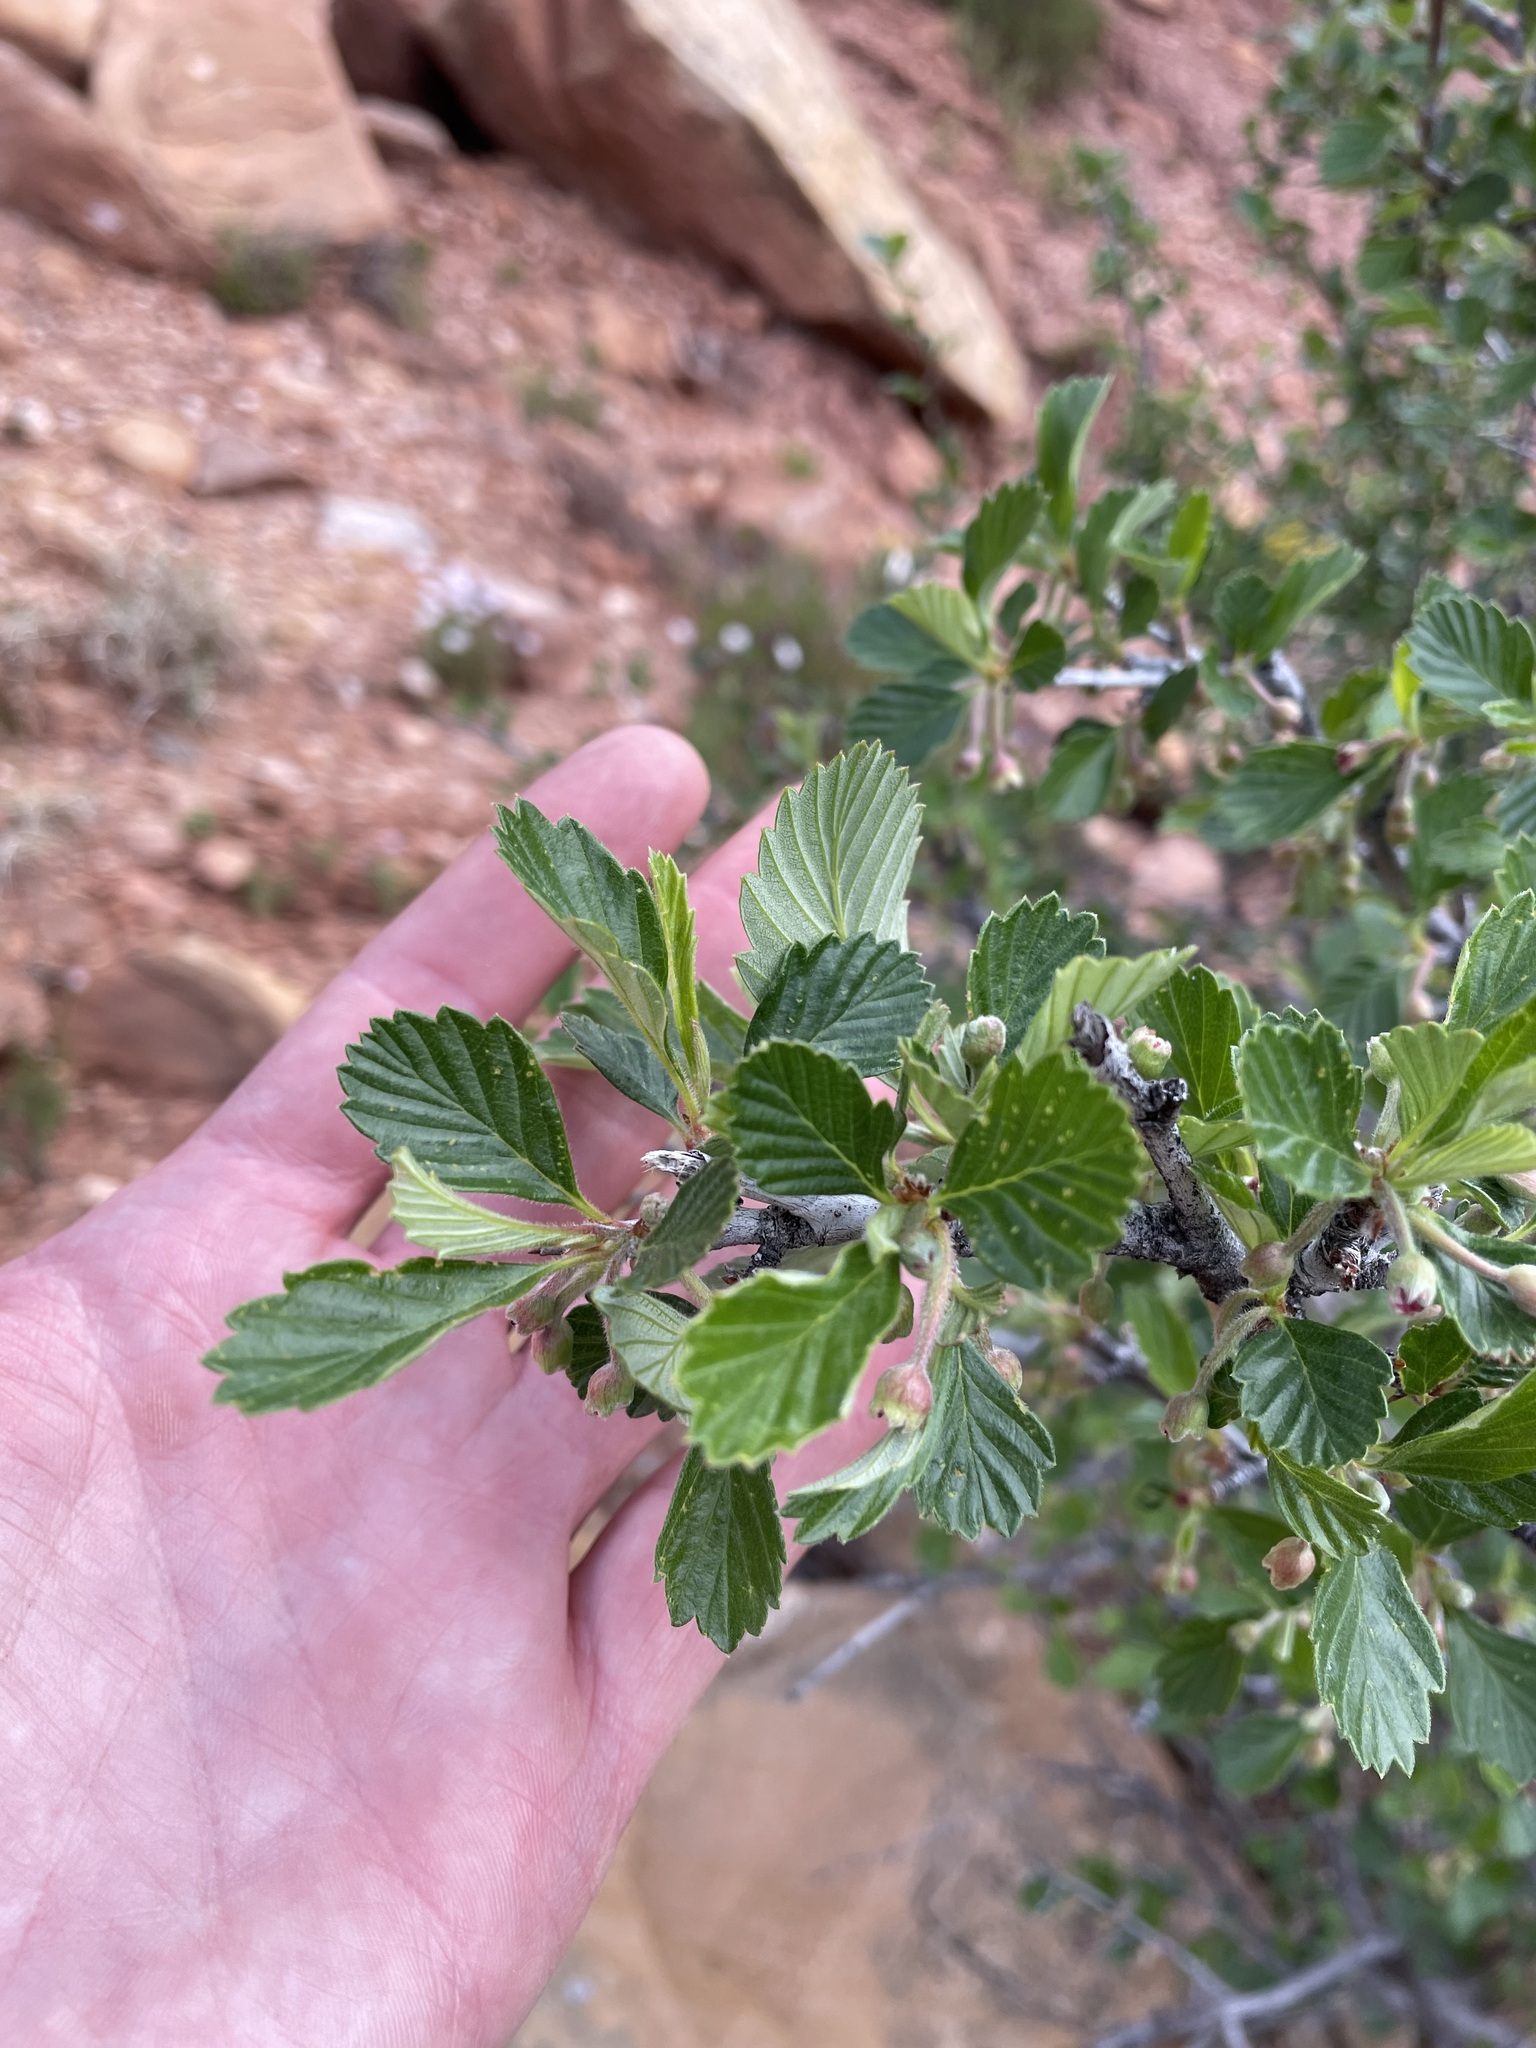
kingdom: Plantae
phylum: Tracheophyta
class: Magnoliopsida
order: Rosales
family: Rosaceae
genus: Cercocarpus
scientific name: Cercocarpus montanus
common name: Alder-leaf cercocarpus
